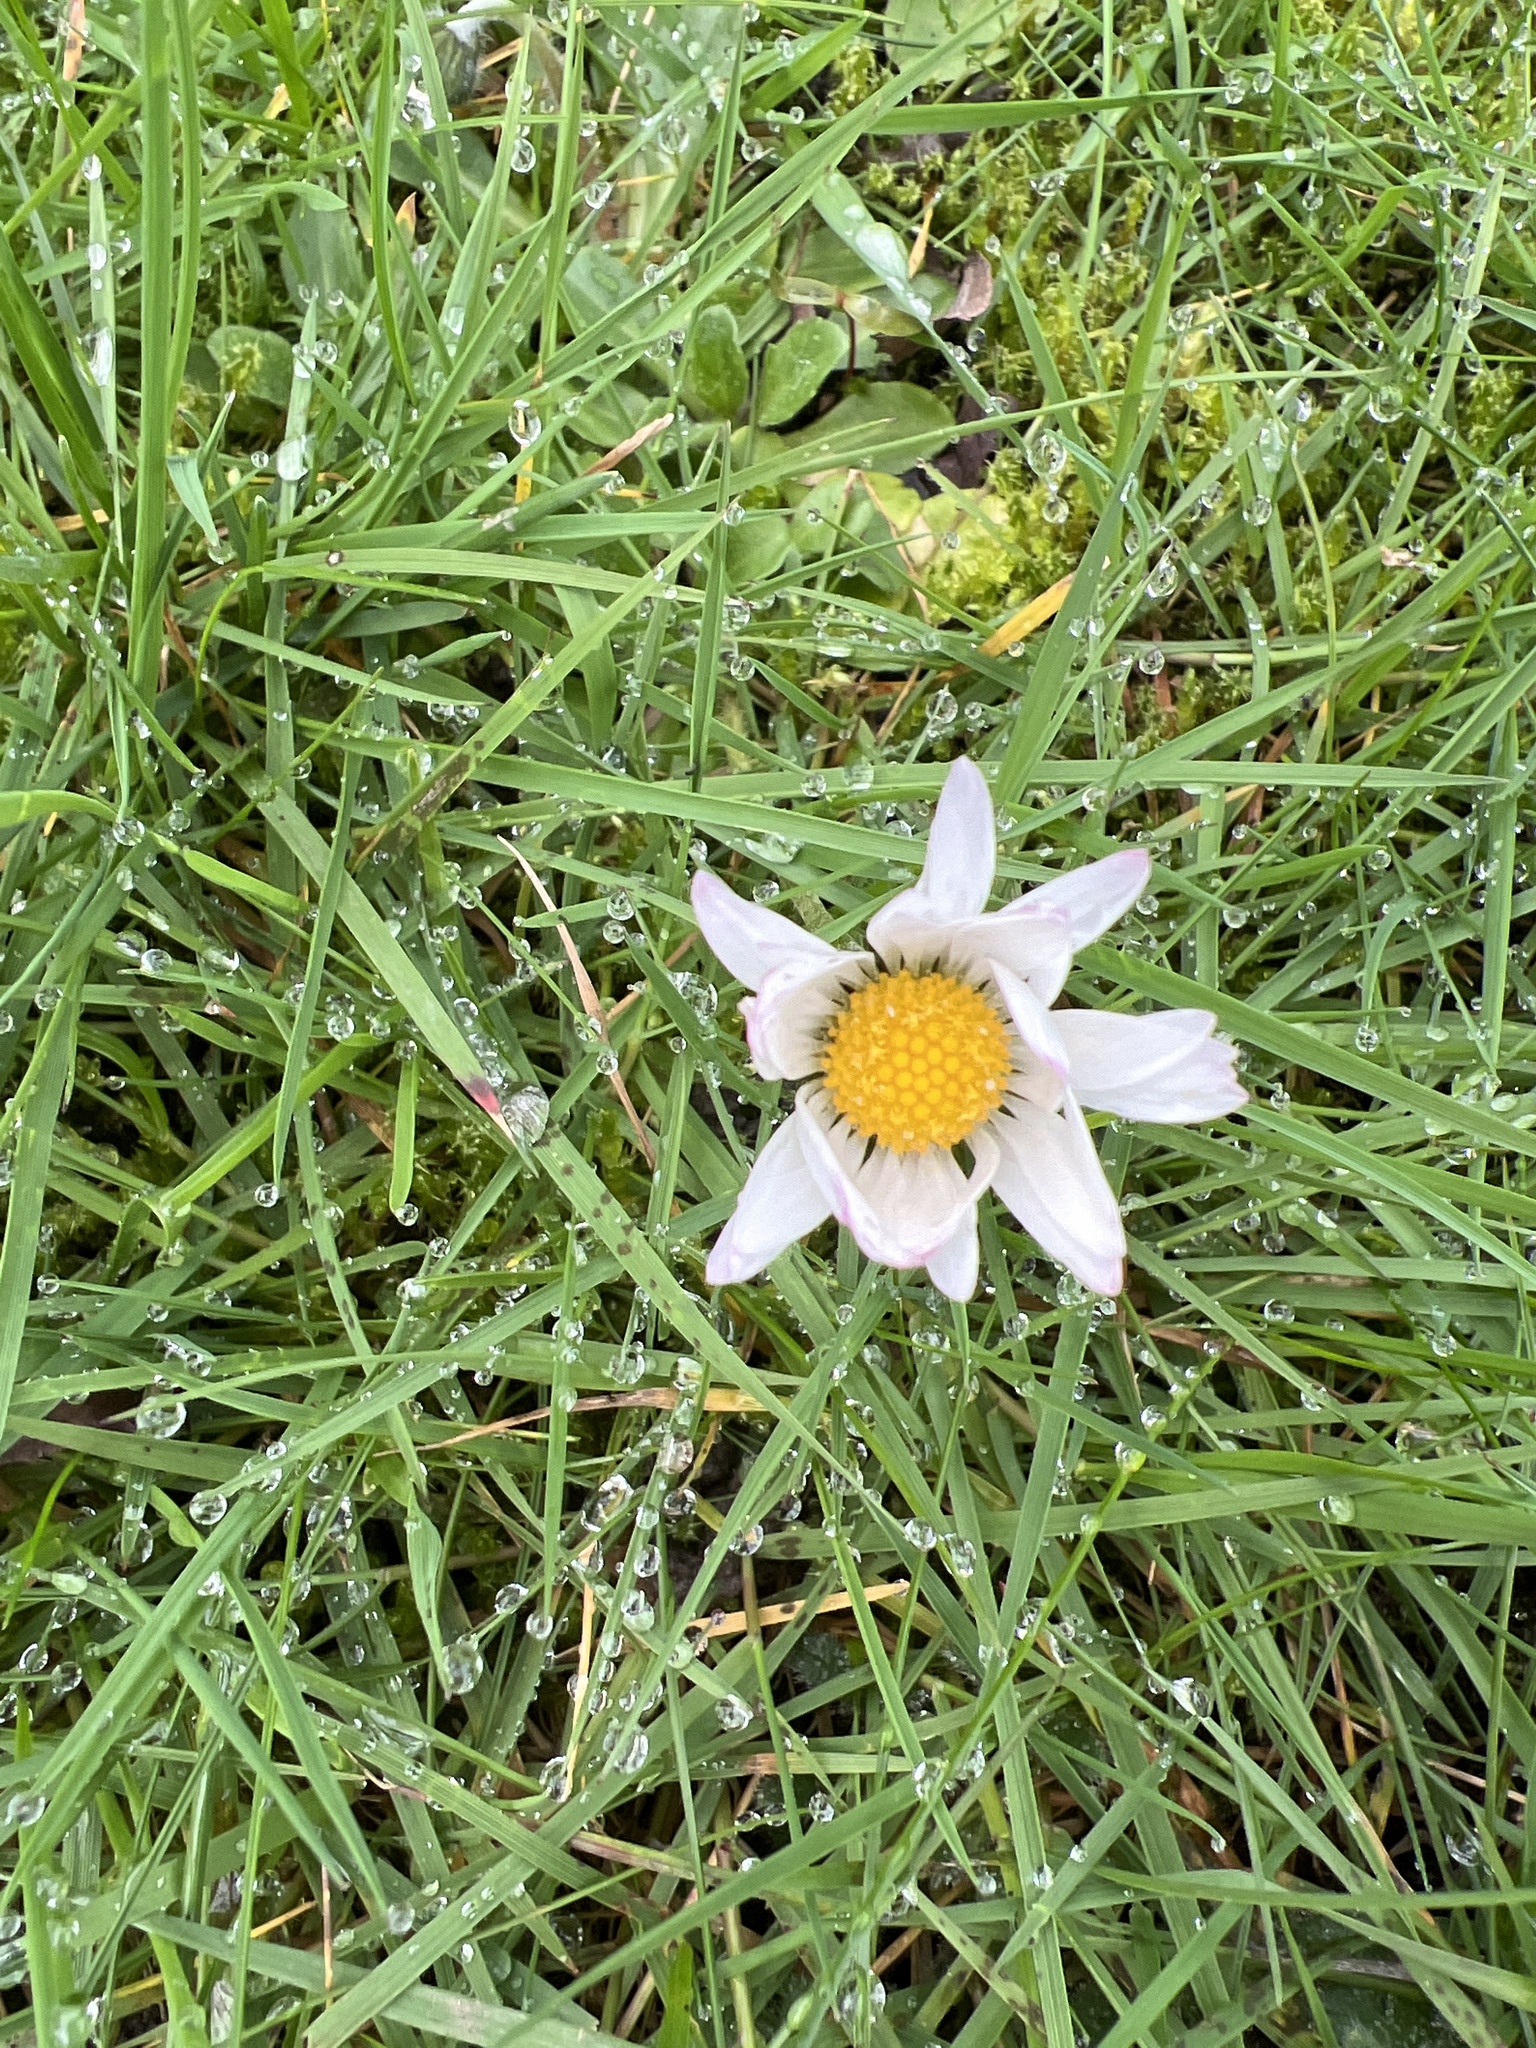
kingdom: Plantae
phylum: Tracheophyta
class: Magnoliopsida
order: Asterales
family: Asteraceae
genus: Bellis
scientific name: Bellis perennis
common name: Lawndaisy
